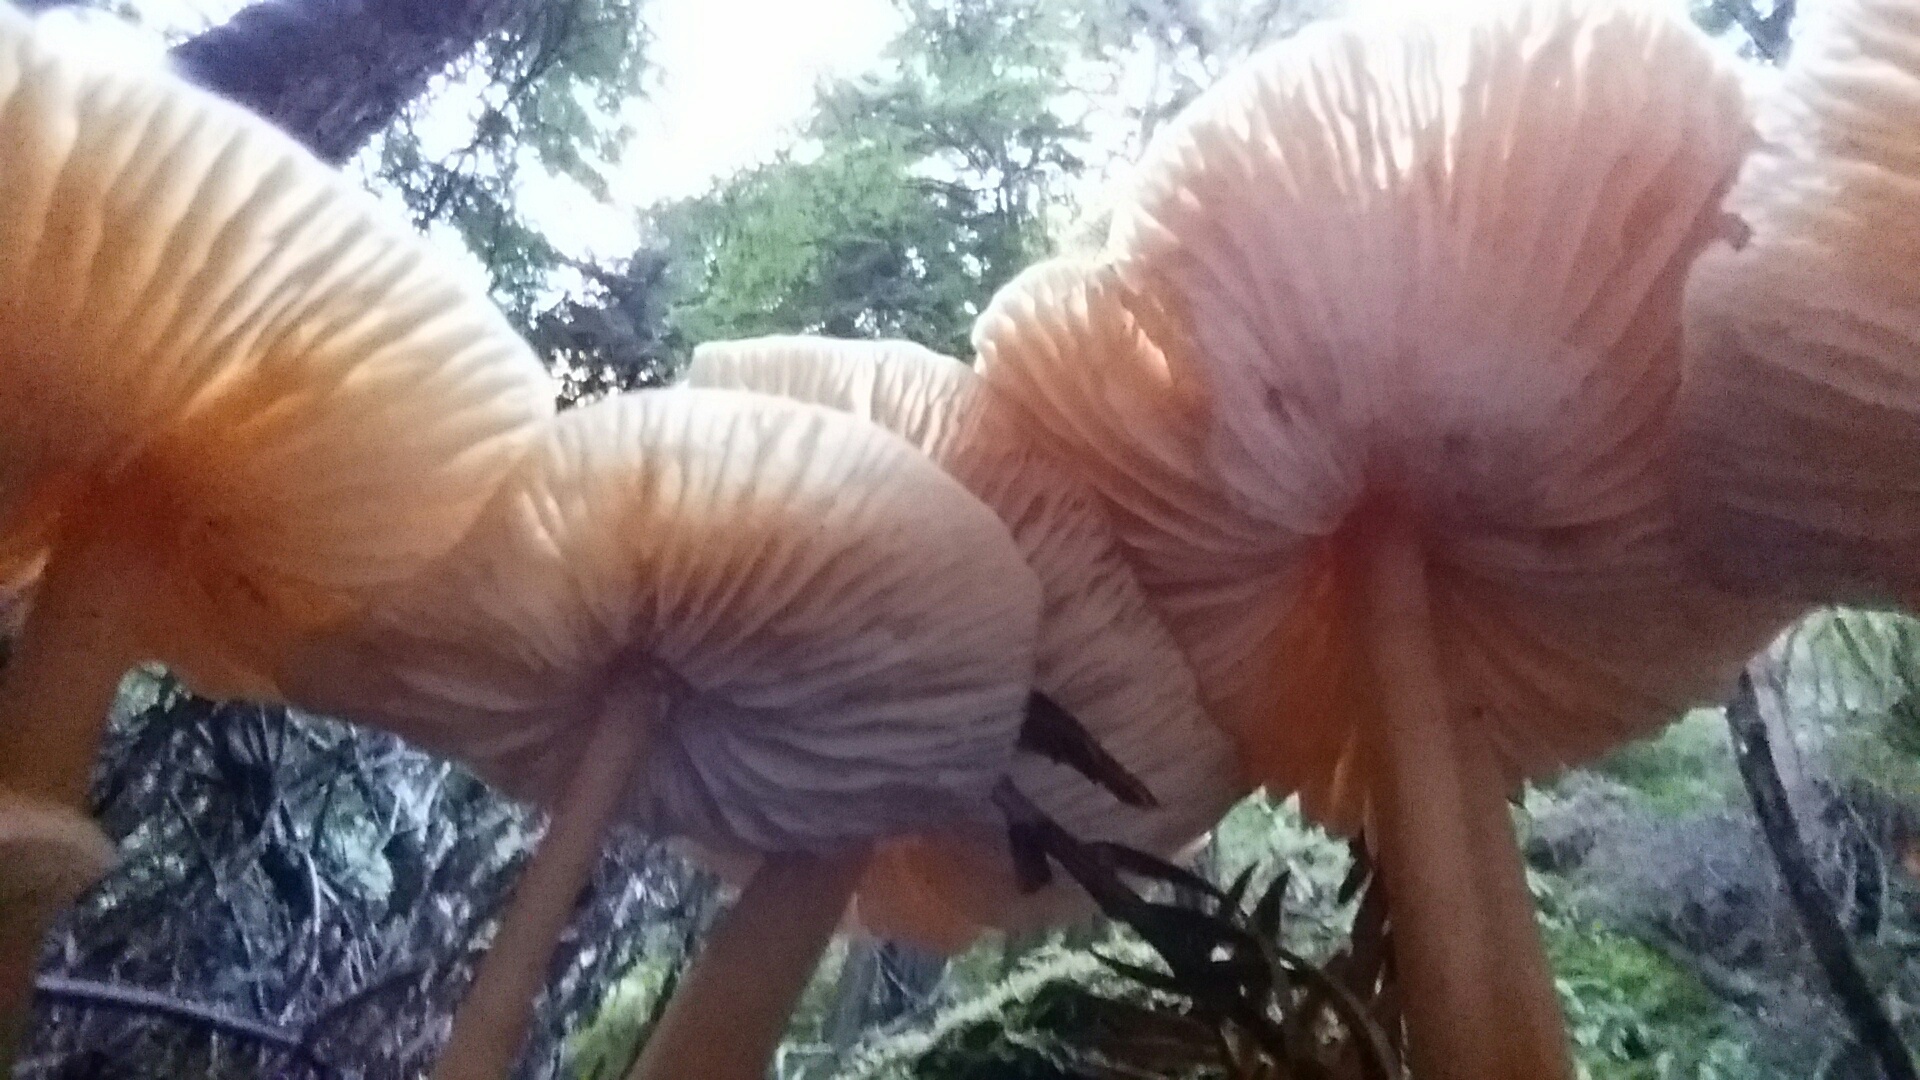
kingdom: Fungi
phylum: Basidiomycota
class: Agaricomycetes
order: Agaricales
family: Tricholomataceae
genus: Caulorhiza
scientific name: Caulorhiza umbonata
